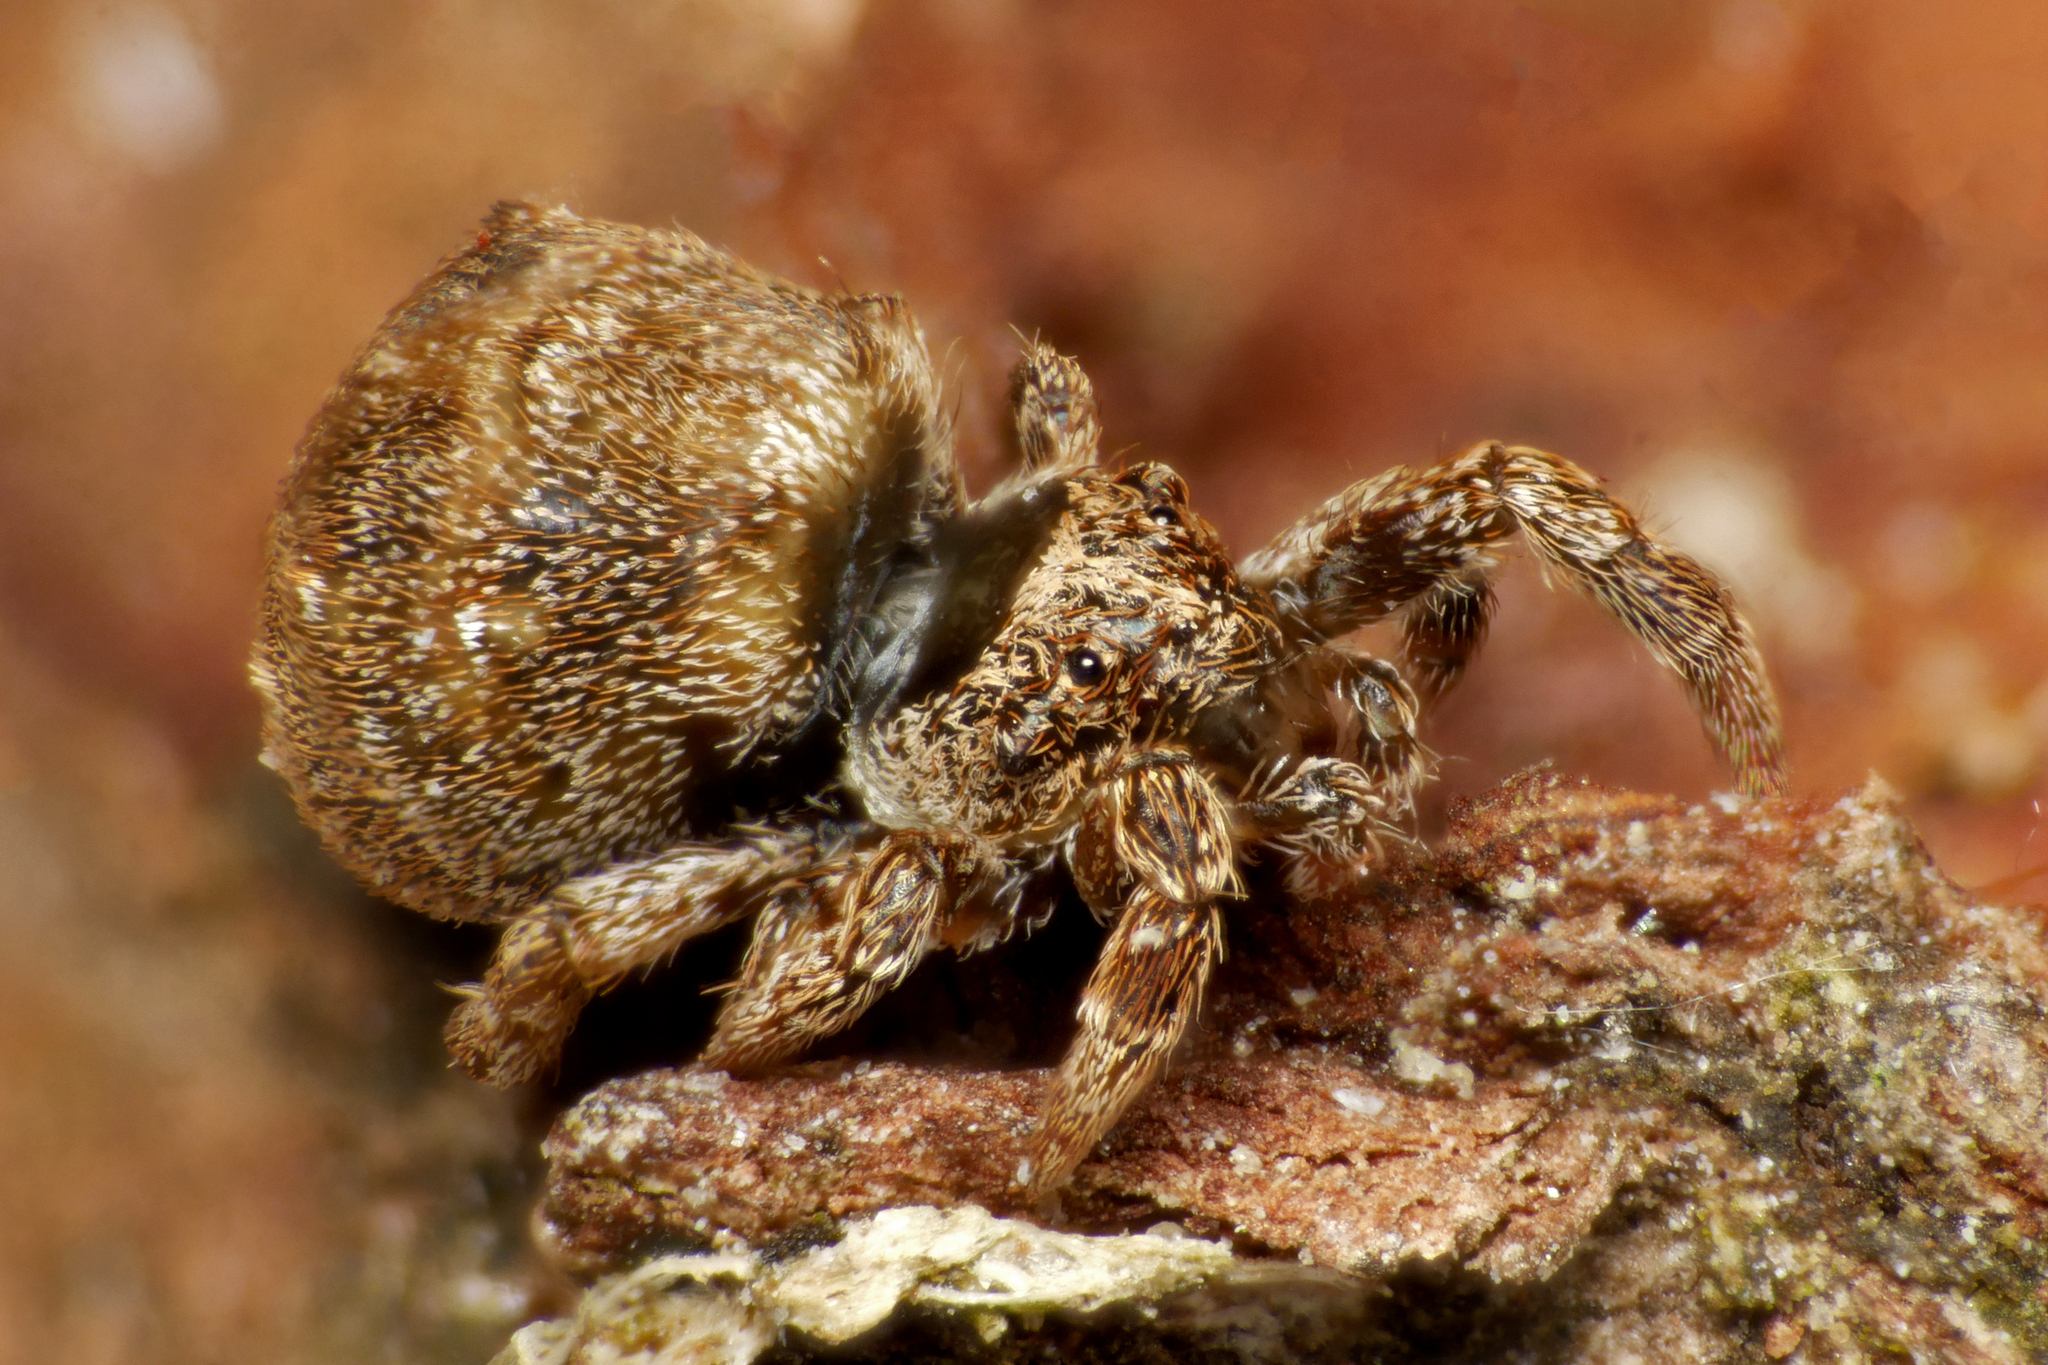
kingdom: Animalia
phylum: Arthropoda
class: Arachnida
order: Araneae
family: Uloboridae
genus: Hyptiotes
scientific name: Hyptiotes paradoxus
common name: Triangle spider
